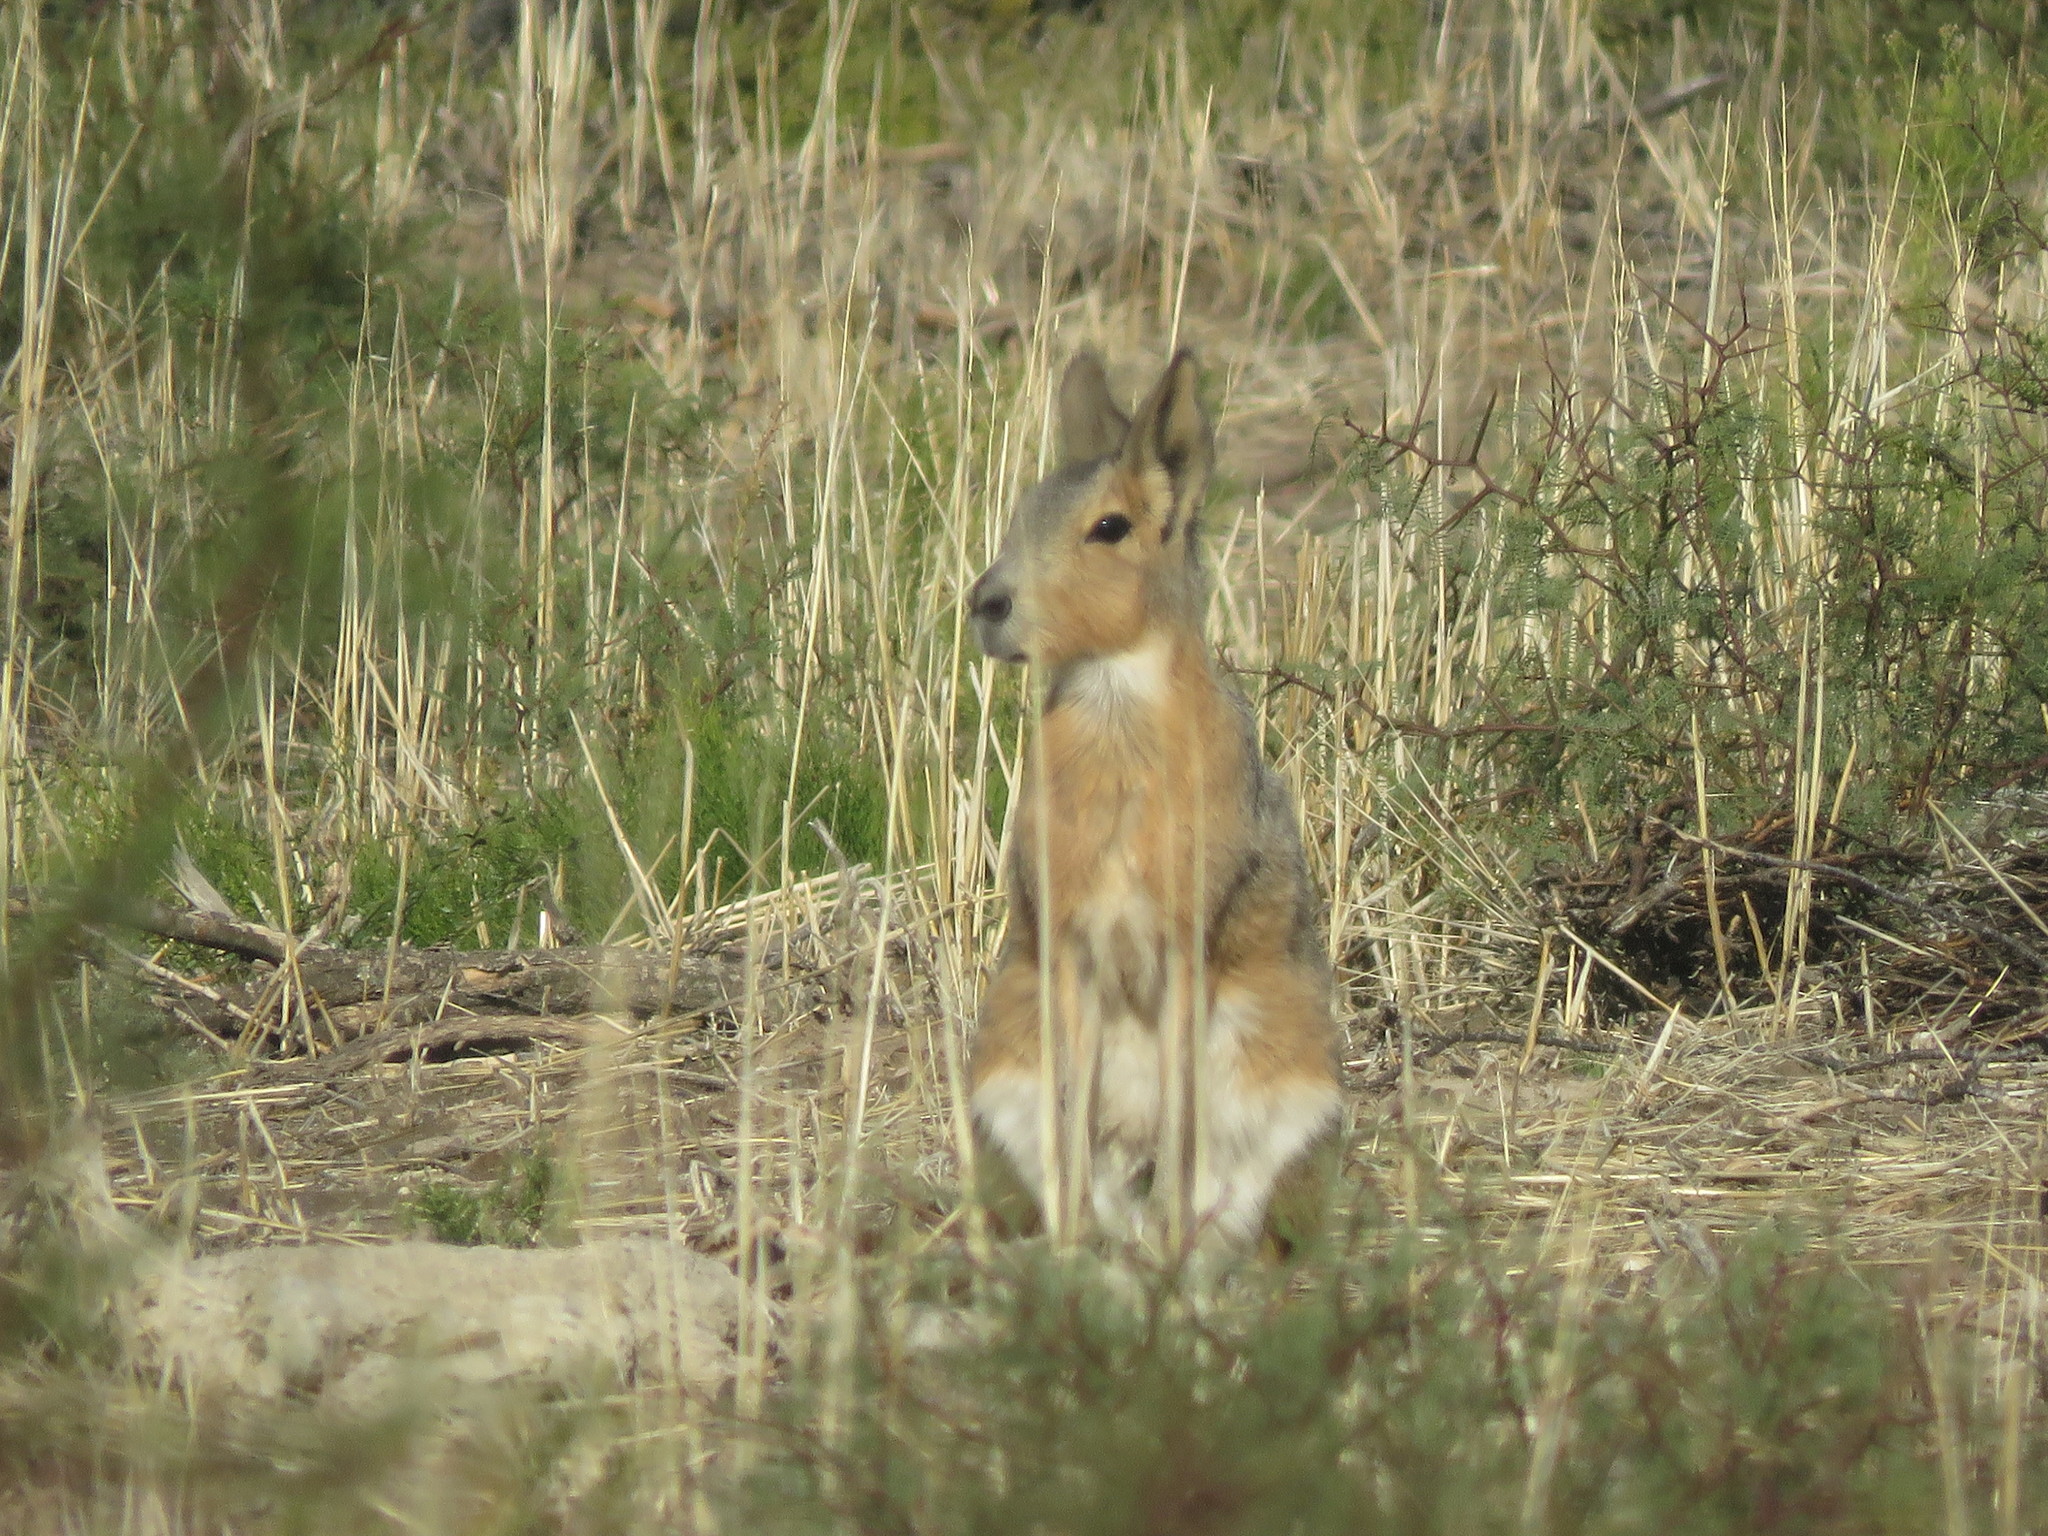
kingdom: Animalia
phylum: Chordata
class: Mammalia
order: Rodentia
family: Caviidae
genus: Dolichotis
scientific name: Dolichotis patagonum
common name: Patagonian mara
